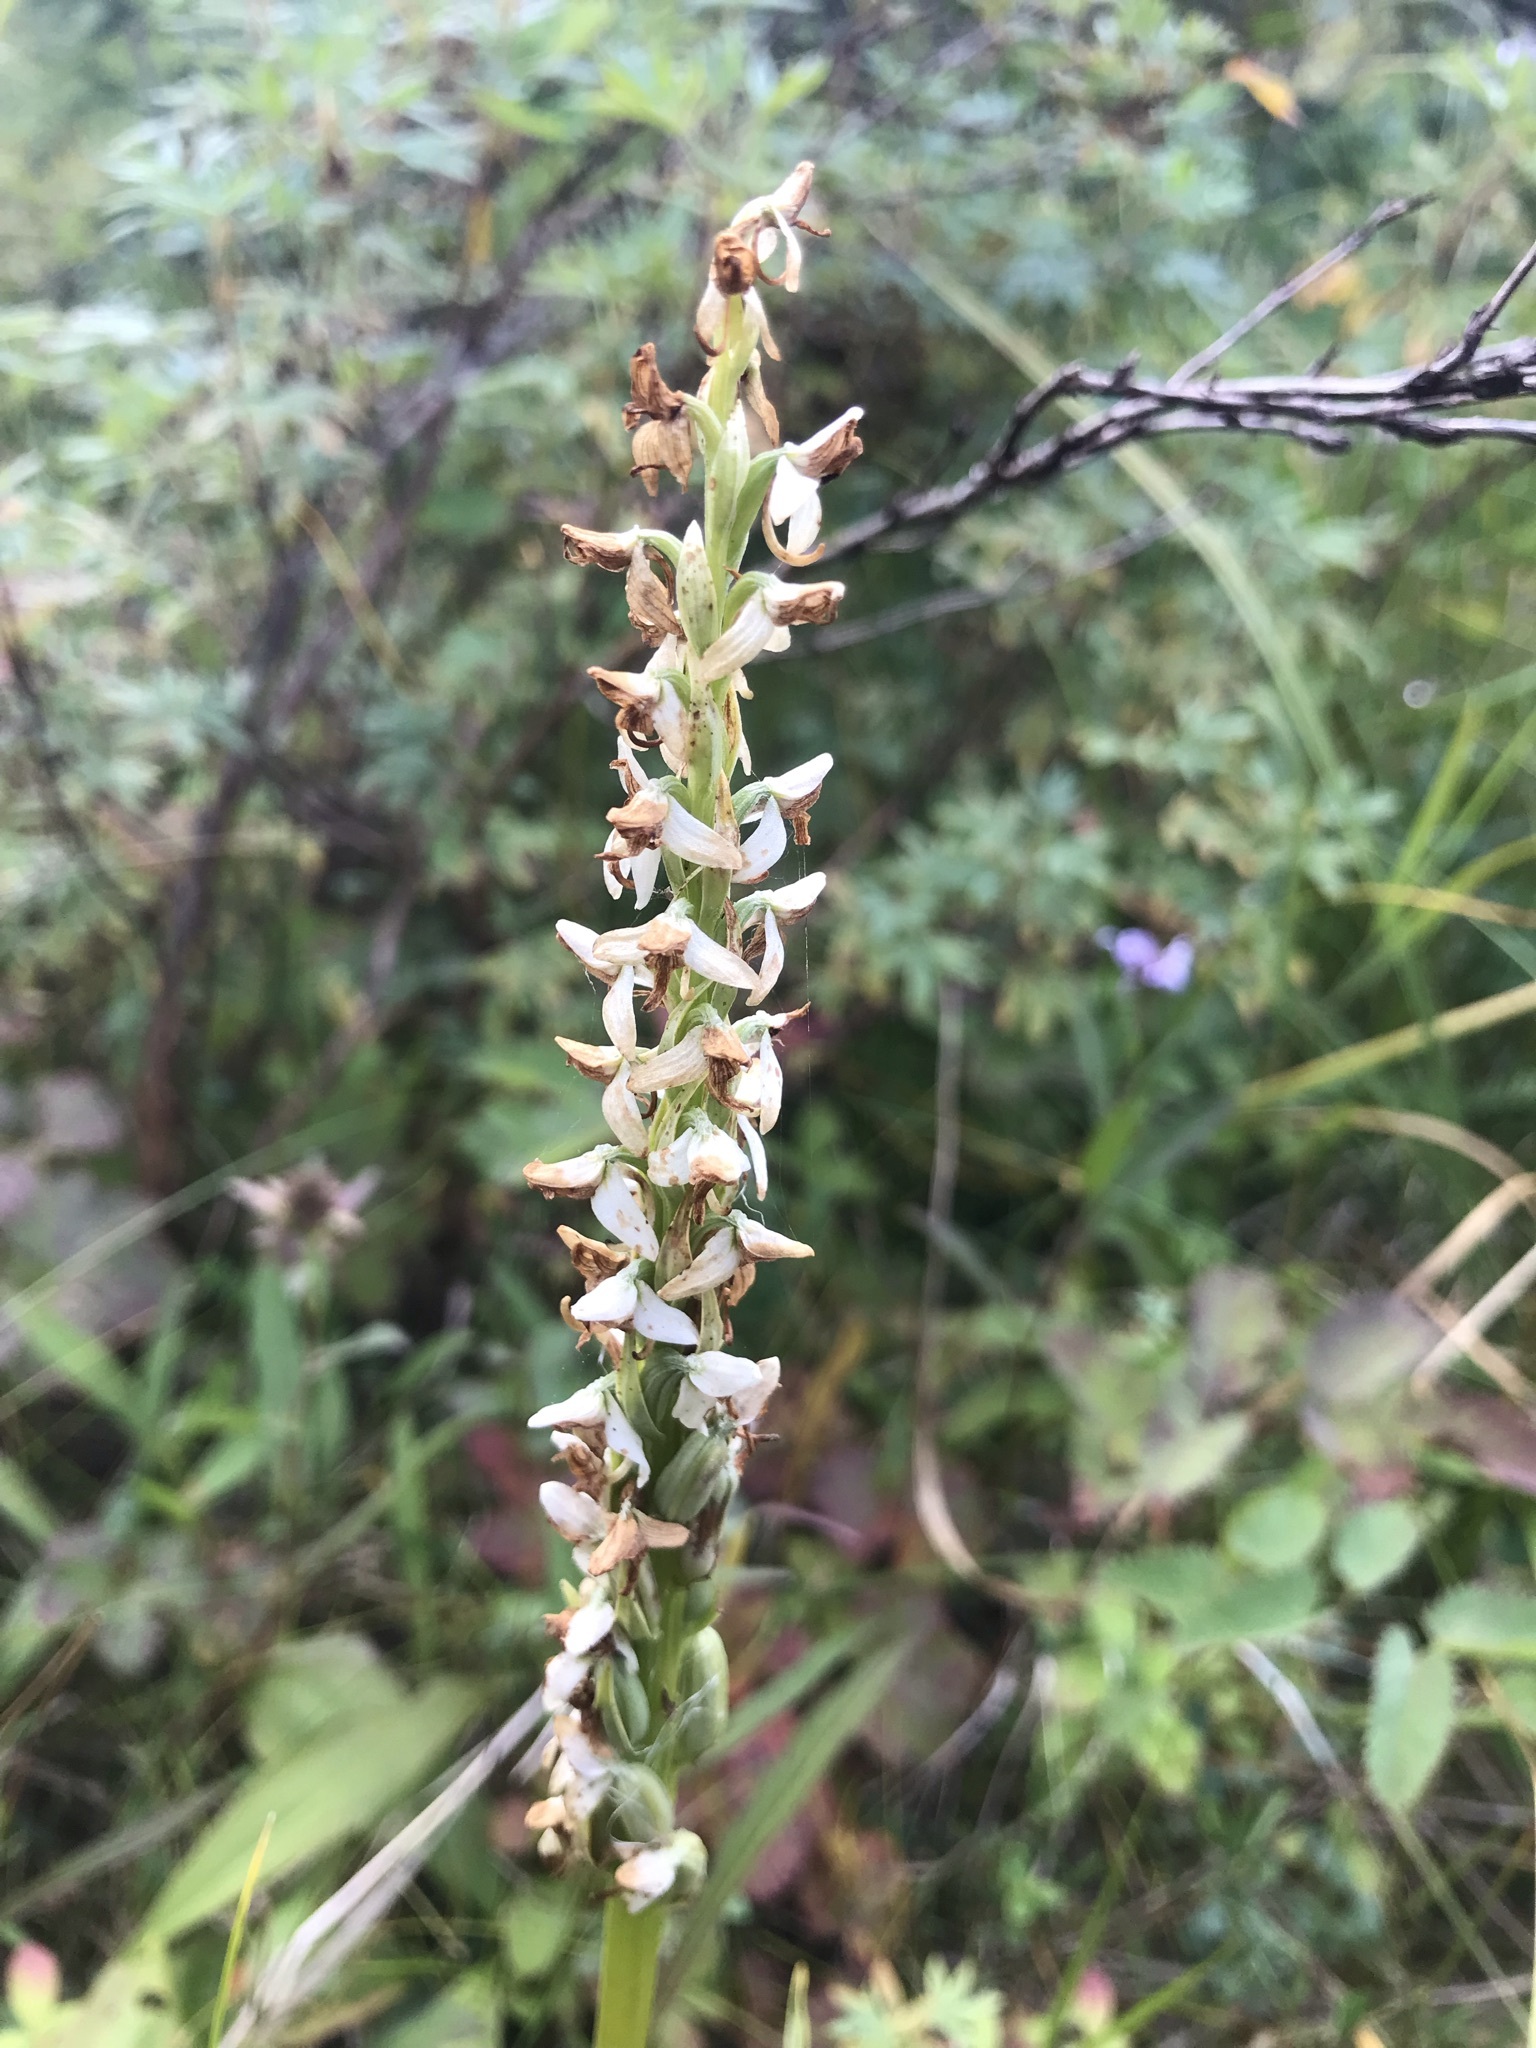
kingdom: Plantae
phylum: Tracheophyta
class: Liliopsida
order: Asparagales
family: Orchidaceae
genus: Platanthera
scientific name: Platanthera dilatata
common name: Bog candles
